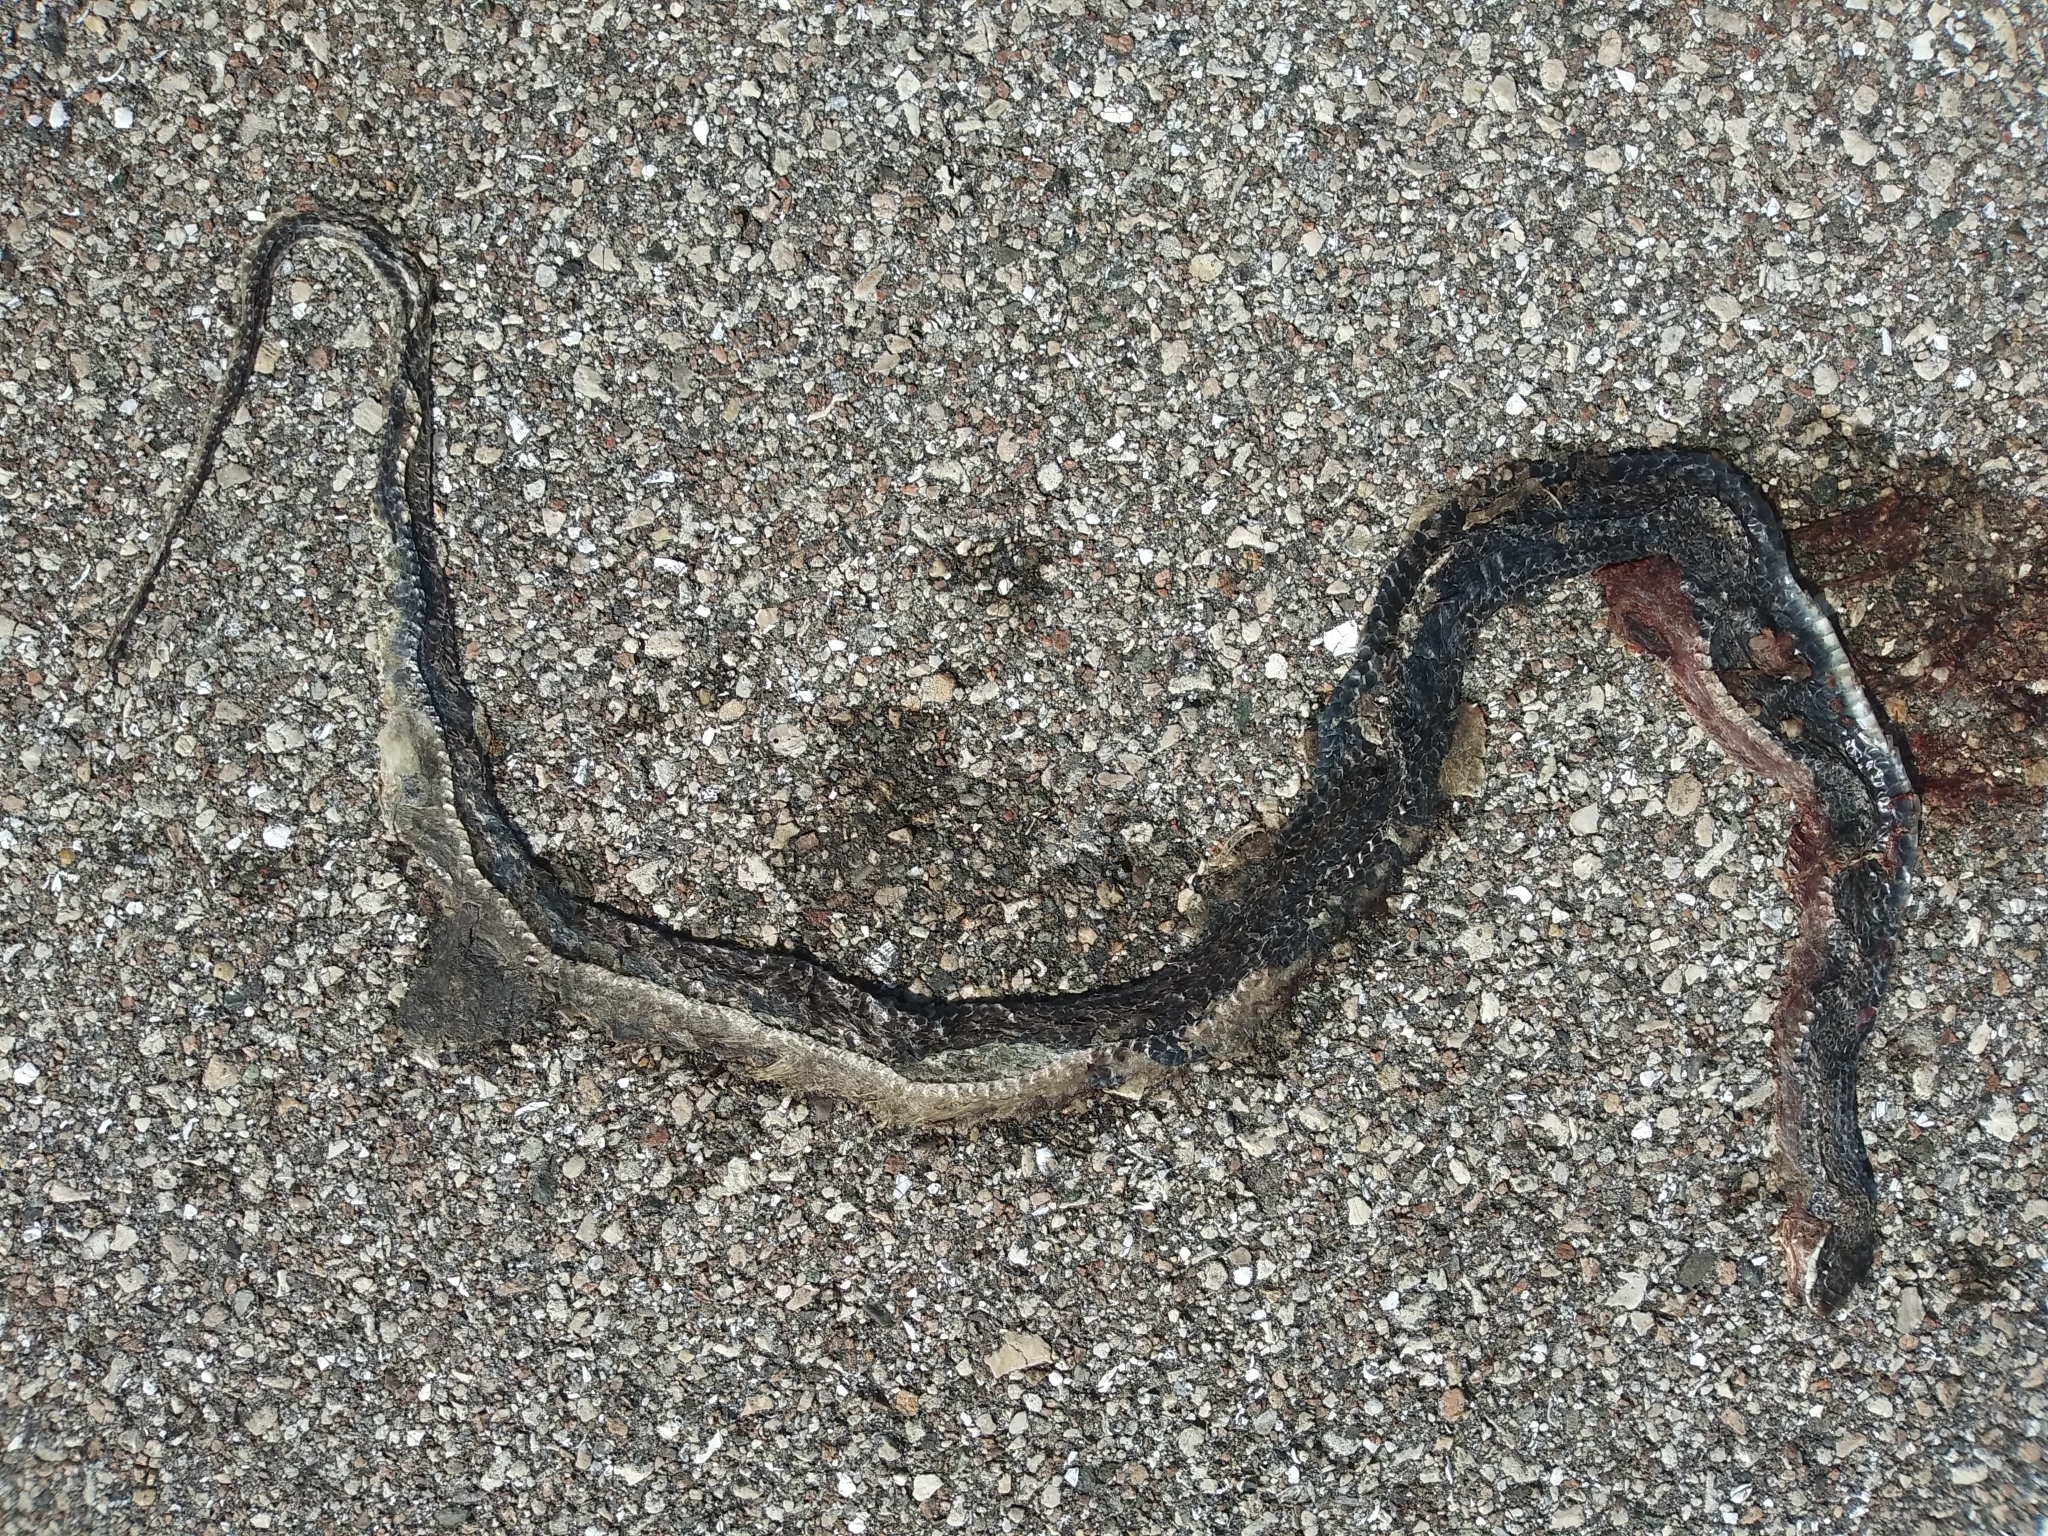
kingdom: Animalia
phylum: Chordata
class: Squamata
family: Colubridae
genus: Coluber
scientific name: Coluber constrictor
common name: Eastern racer
